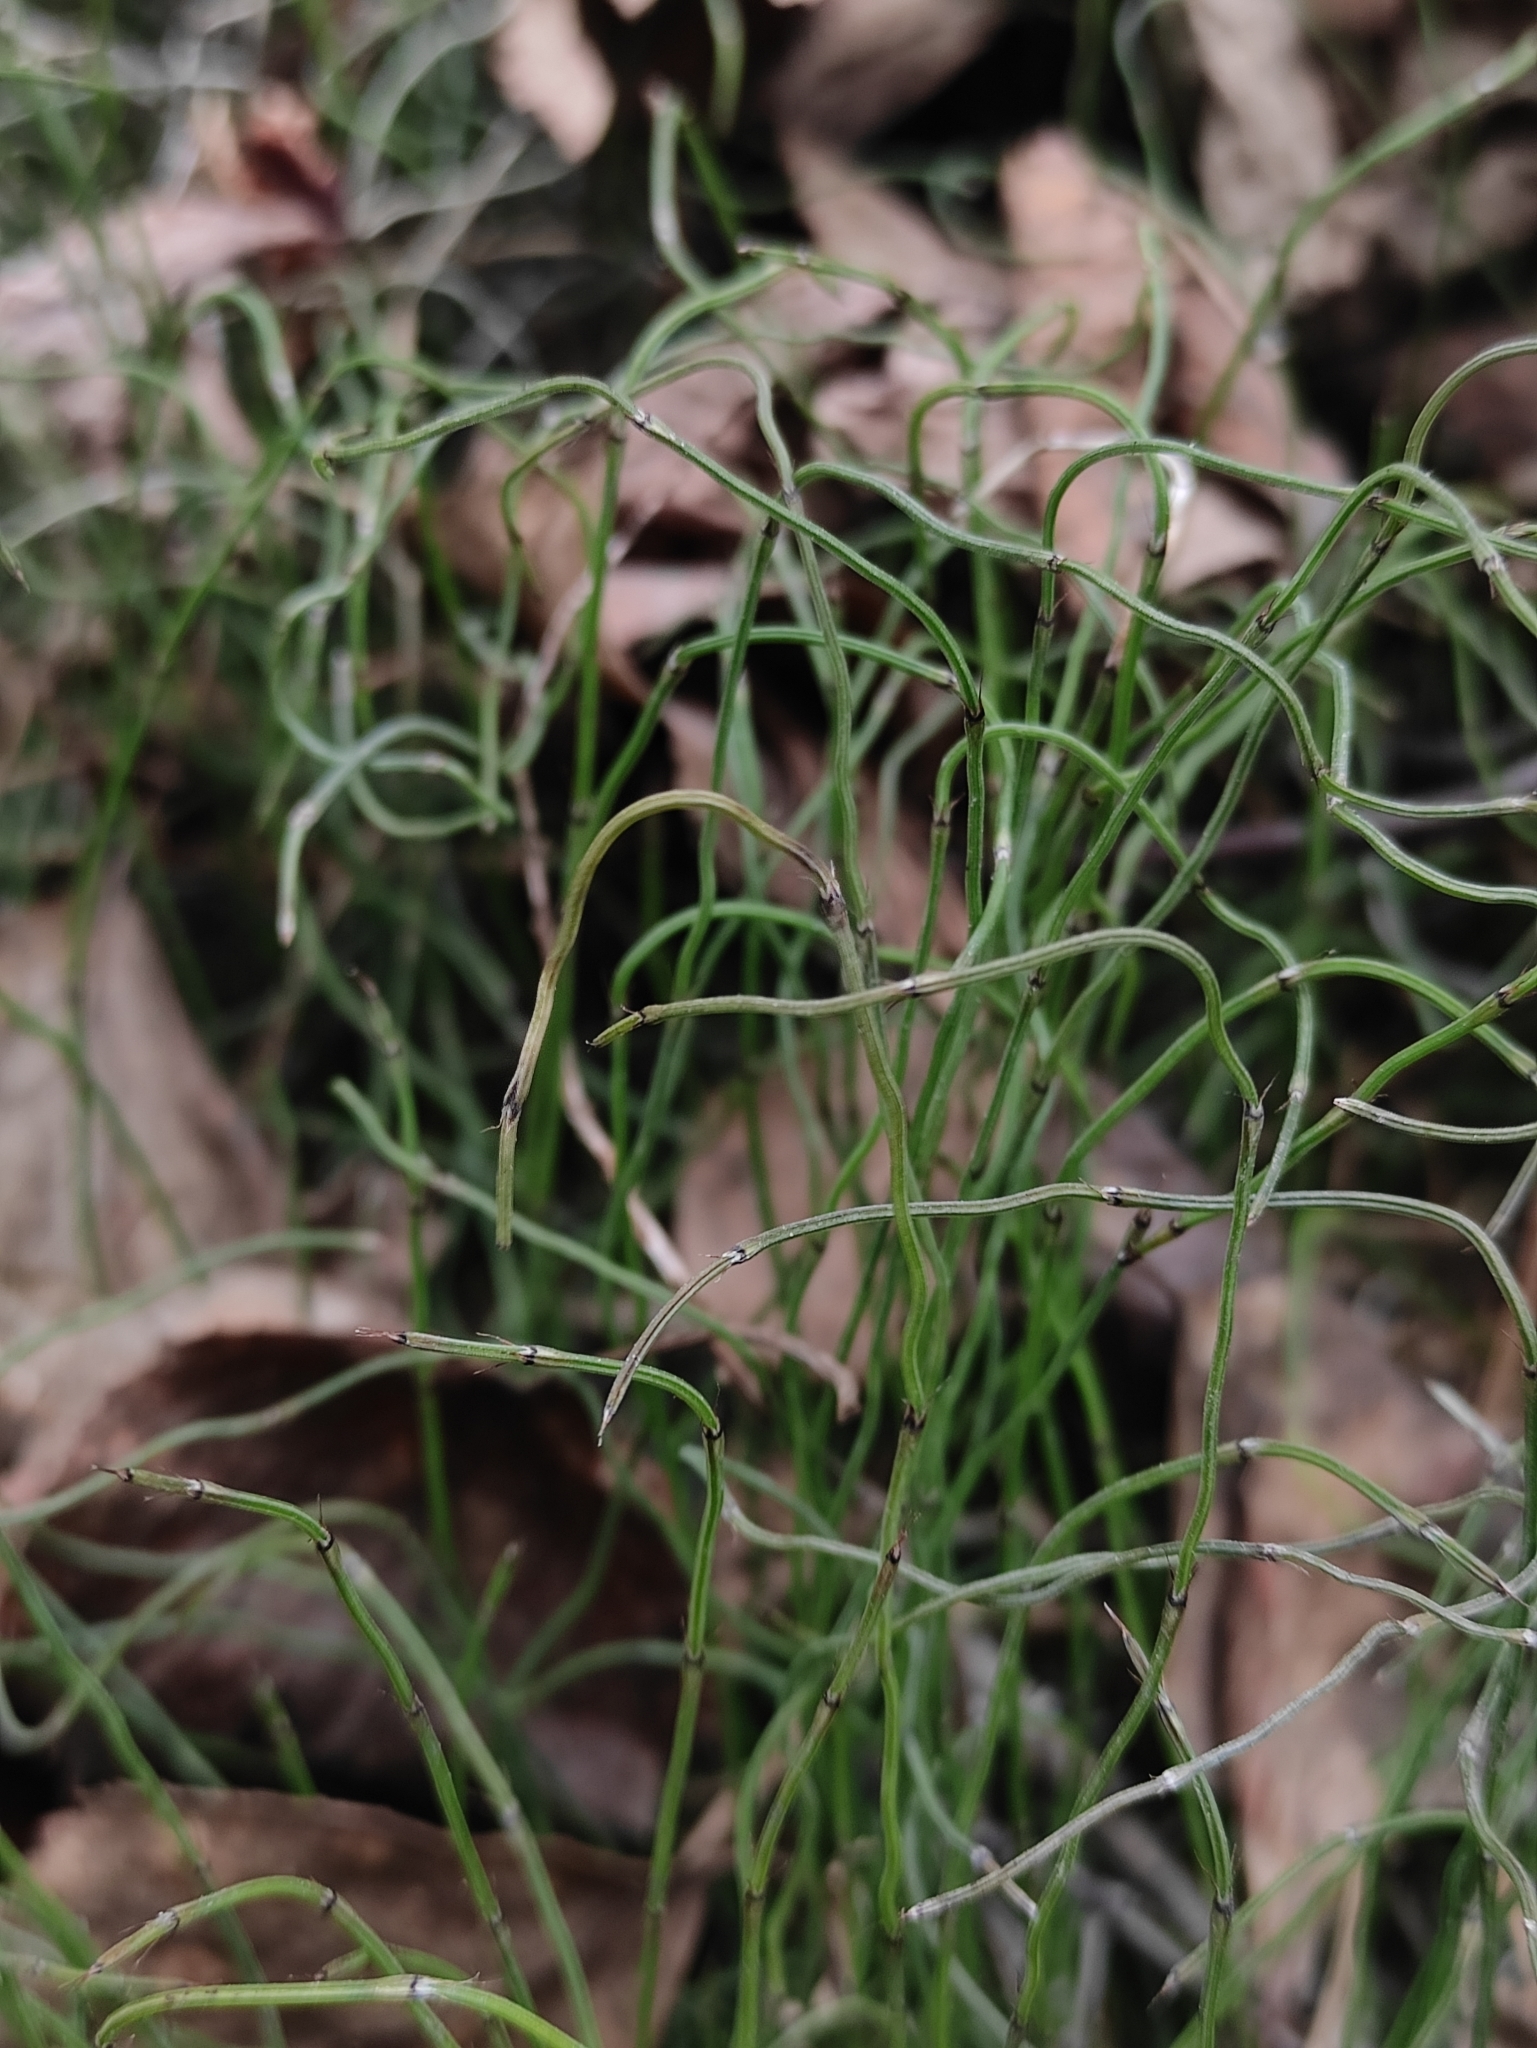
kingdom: Plantae
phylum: Tracheophyta
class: Polypodiopsida
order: Equisetales
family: Equisetaceae
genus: Equisetum
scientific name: Equisetum scirpoides
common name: Delicate horsetail
